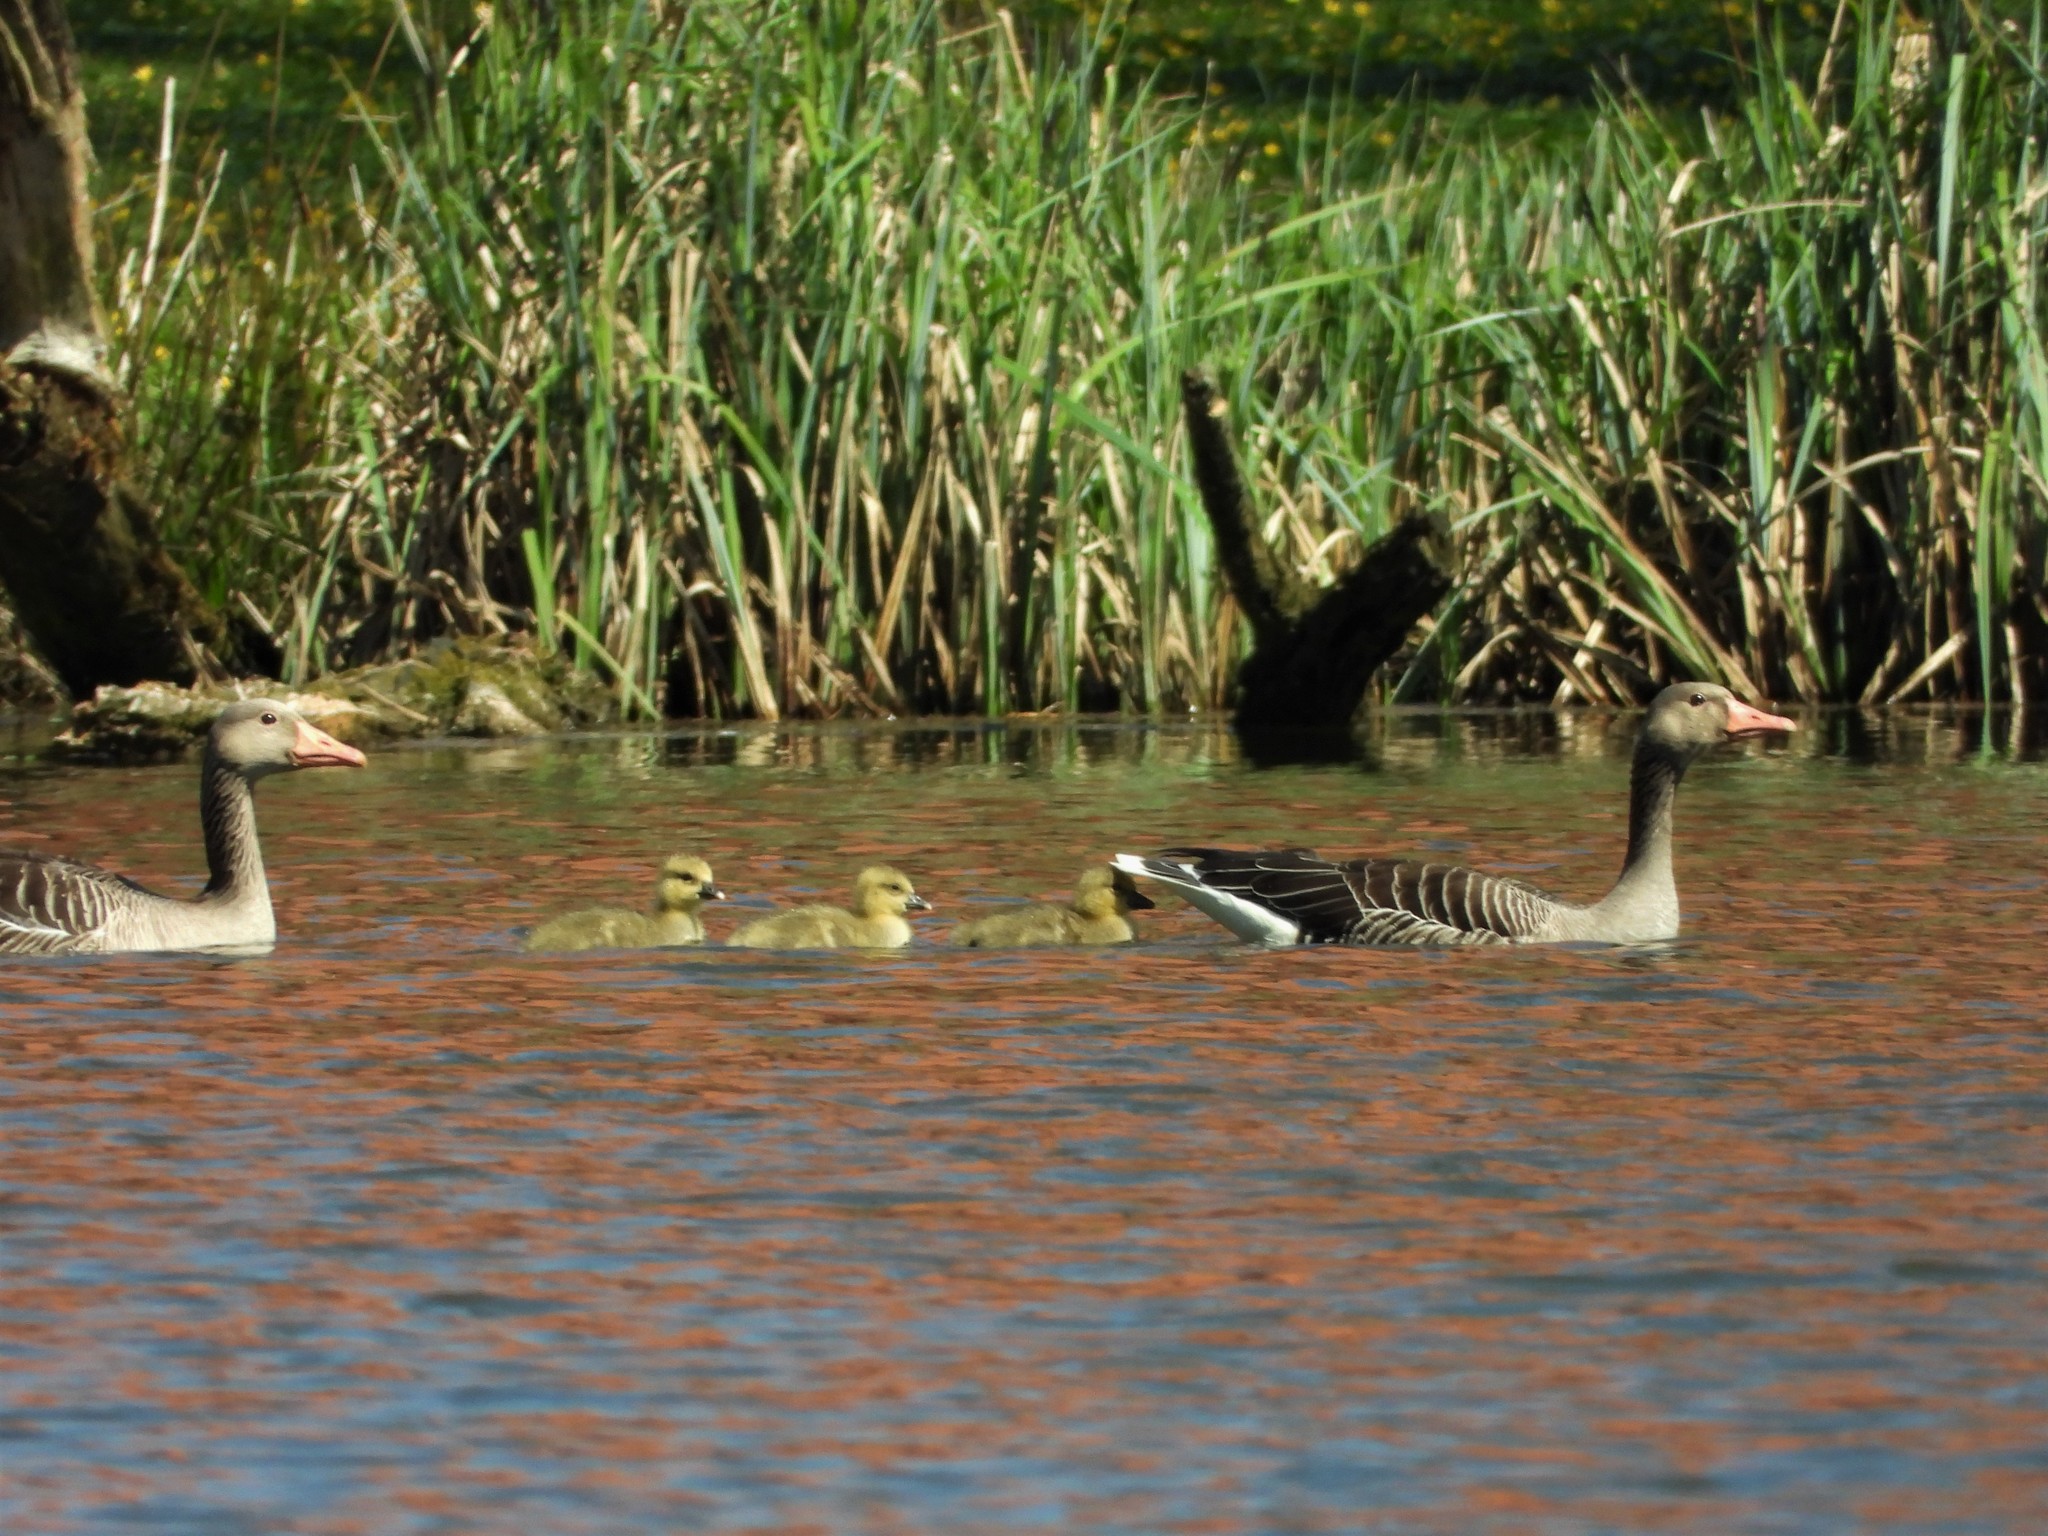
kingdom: Animalia
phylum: Chordata
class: Aves
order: Anseriformes
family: Anatidae
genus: Anser
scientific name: Anser anser
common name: Greylag goose
